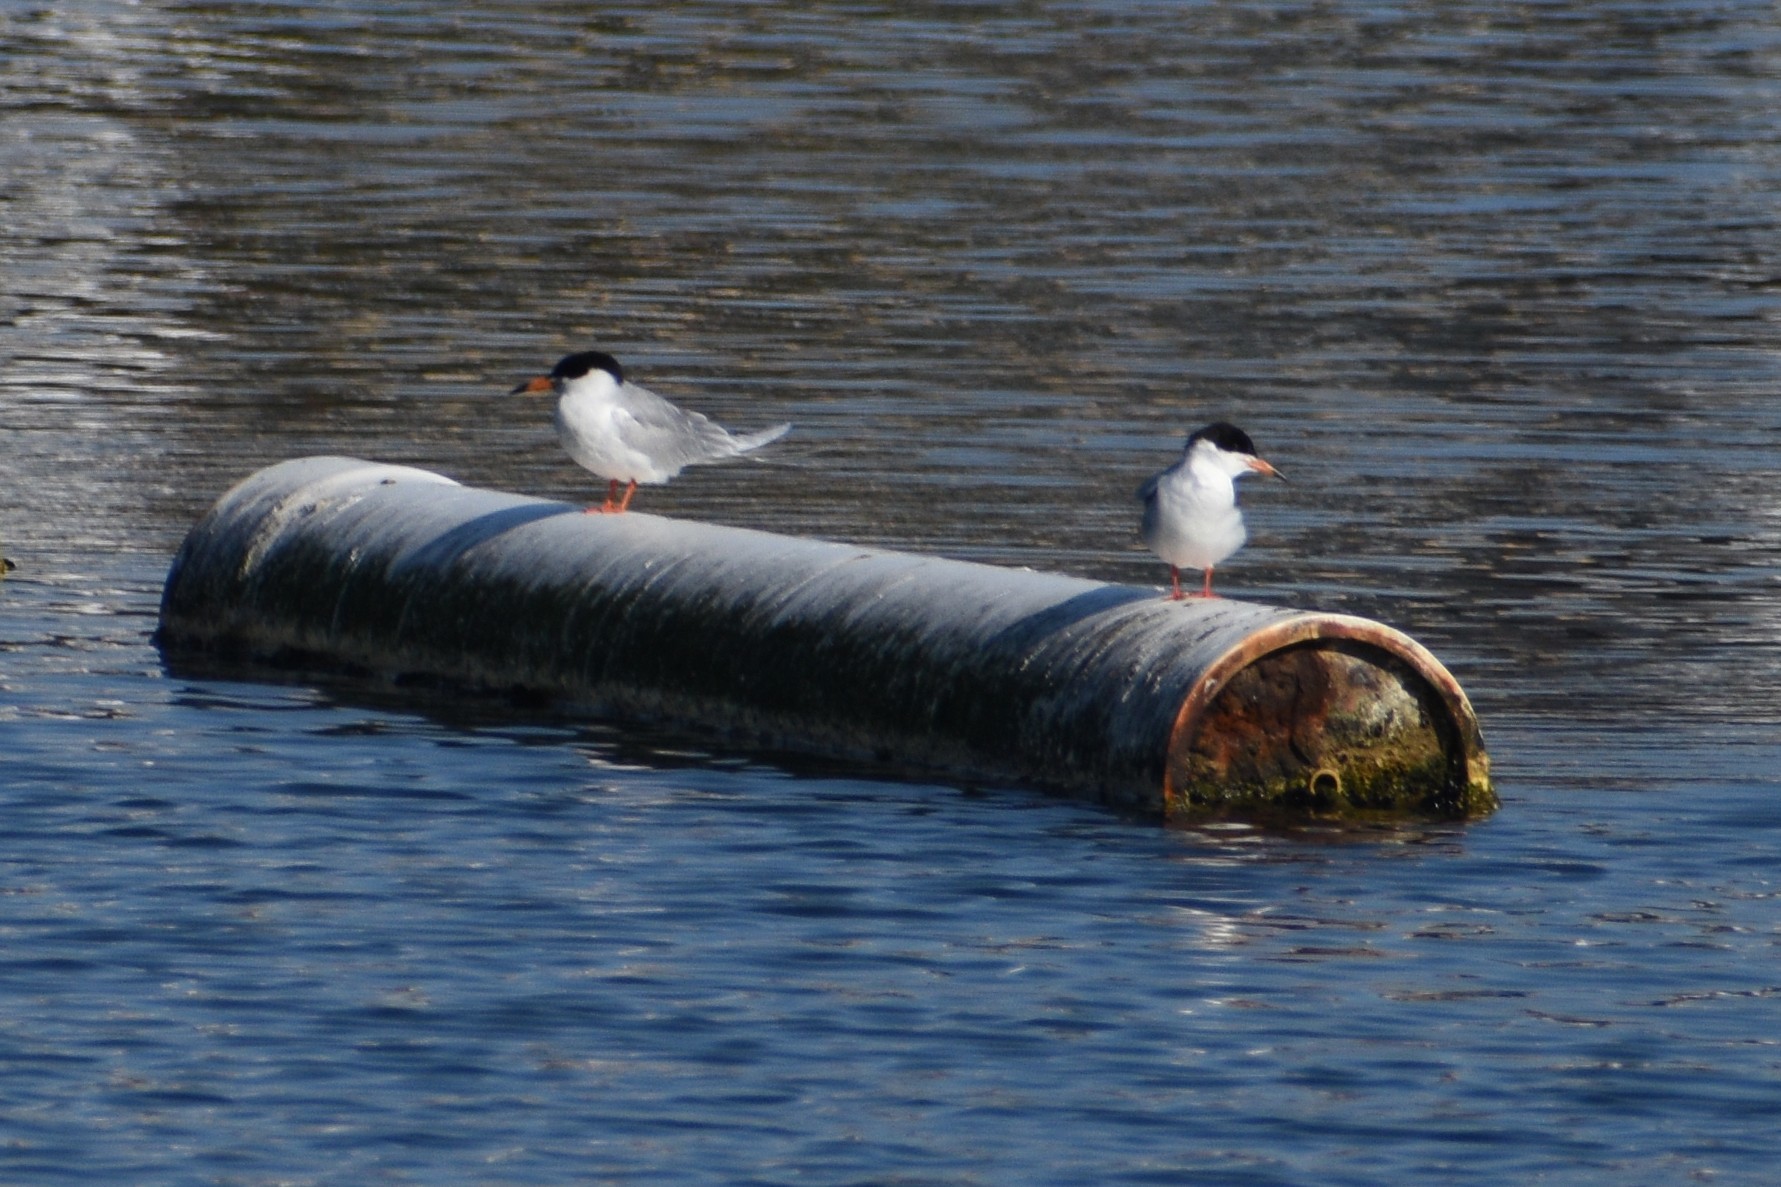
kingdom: Animalia
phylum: Chordata
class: Aves
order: Charadriiformes
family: Laridae
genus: Sterna
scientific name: Sterna forsteri
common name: Forster's tern
